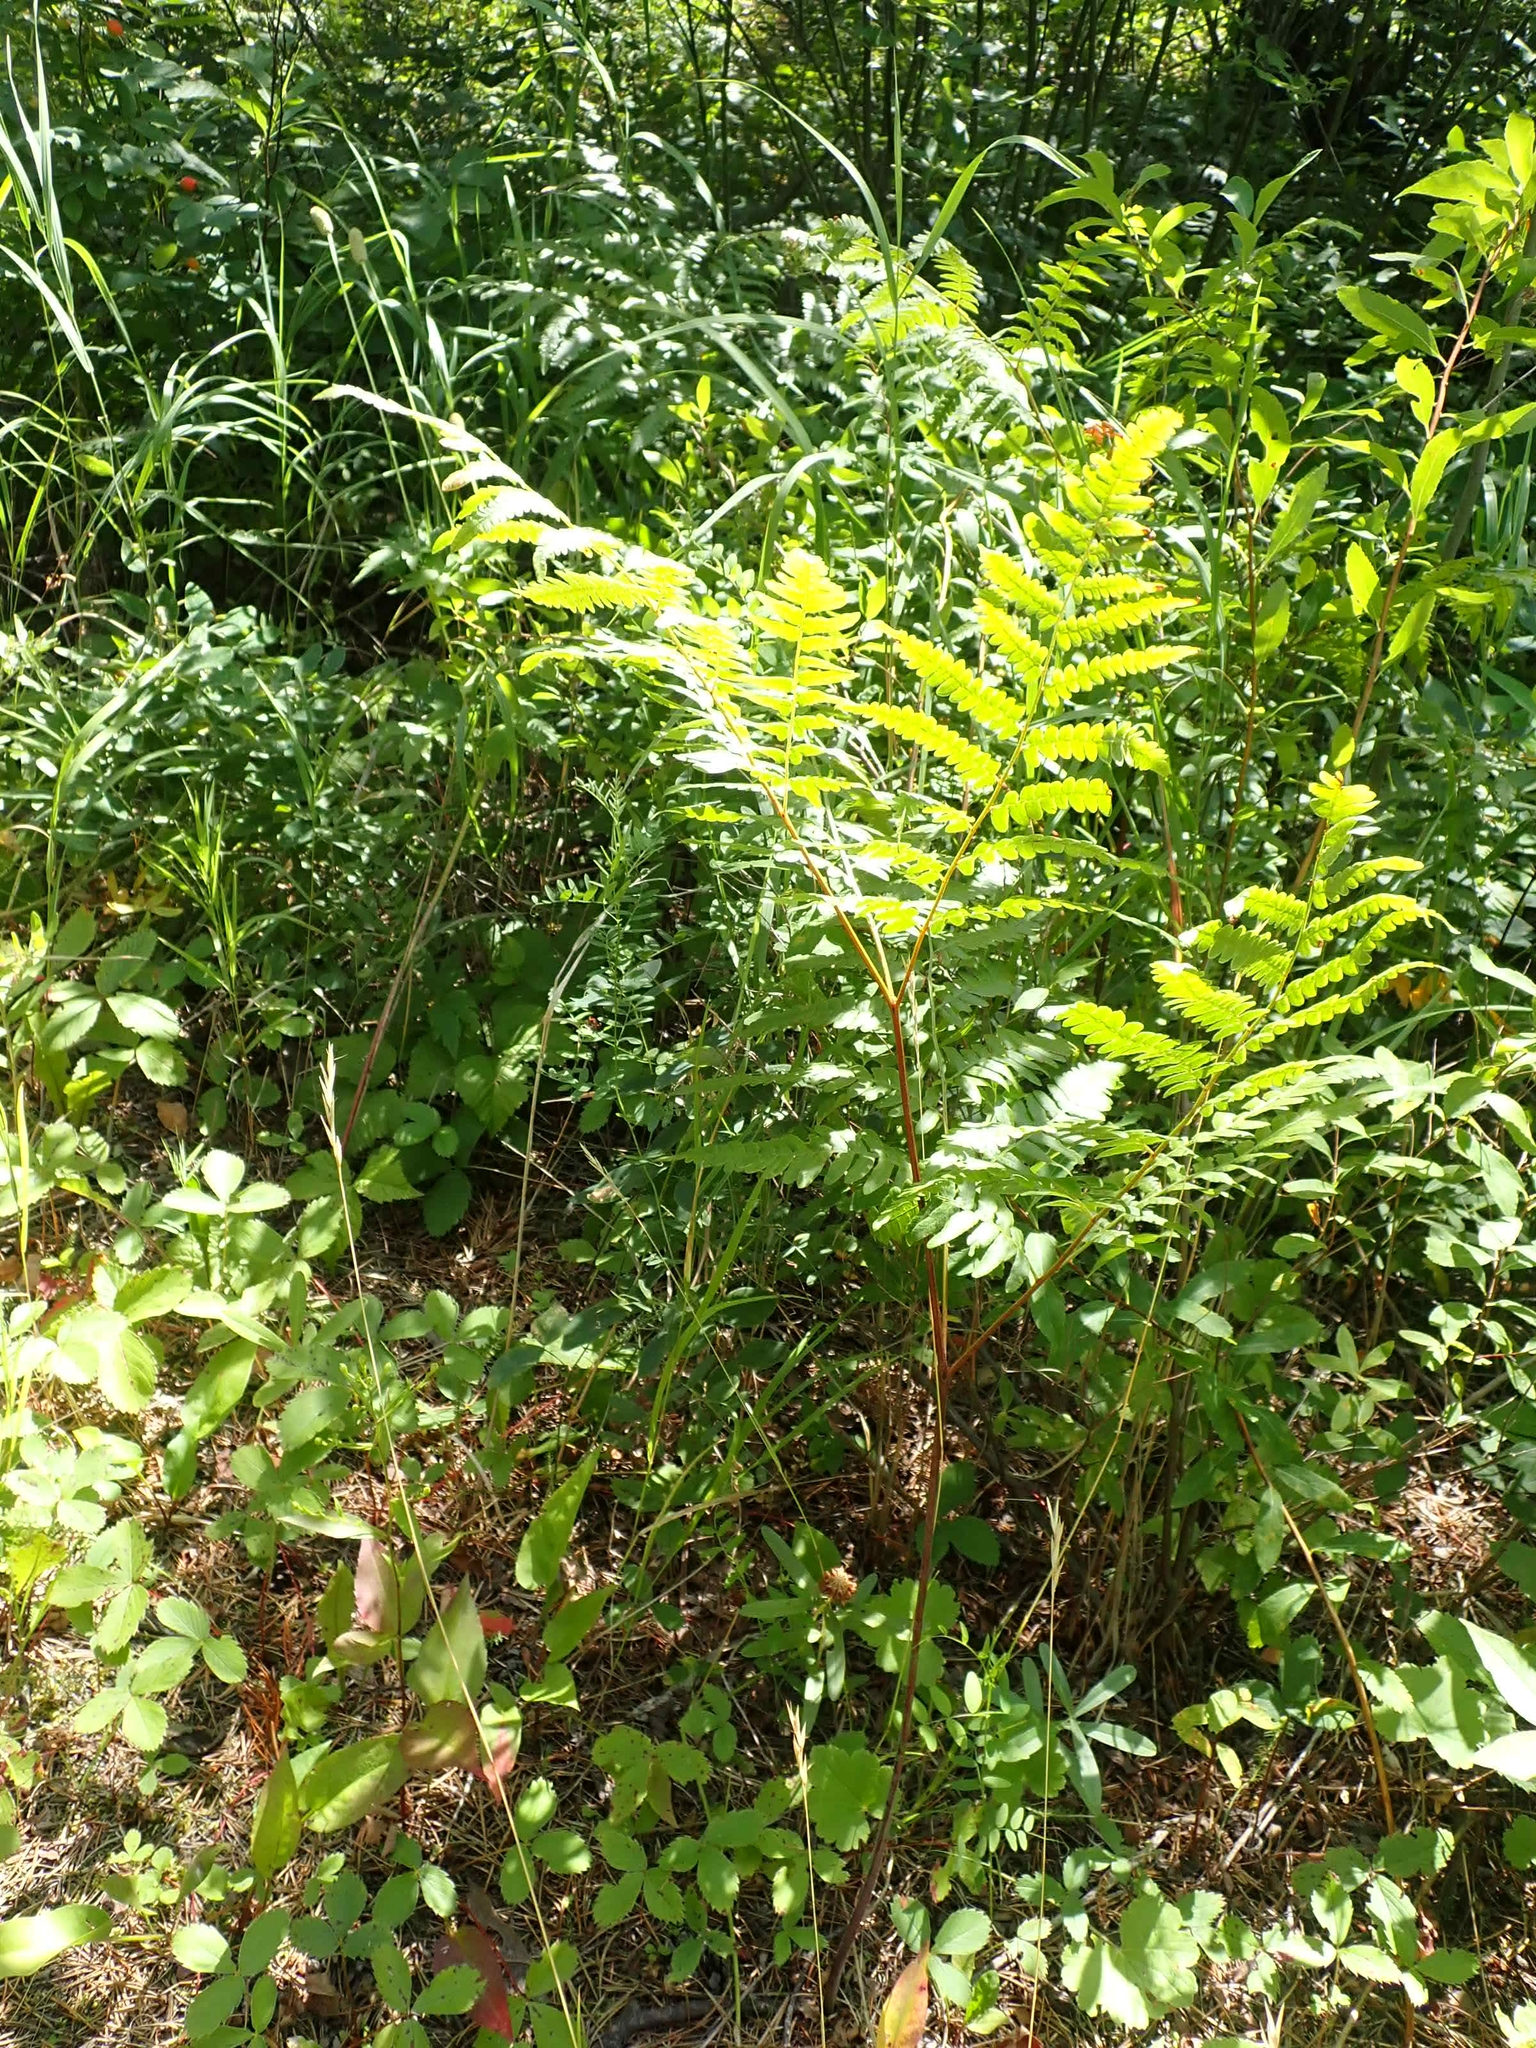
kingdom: Plantae
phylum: Tracheophyta
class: Polypodiopsida
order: Polypodiales
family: Dennstaedtiaceae
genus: Pteridium
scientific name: Pteridium aquilinum
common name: Bracken
